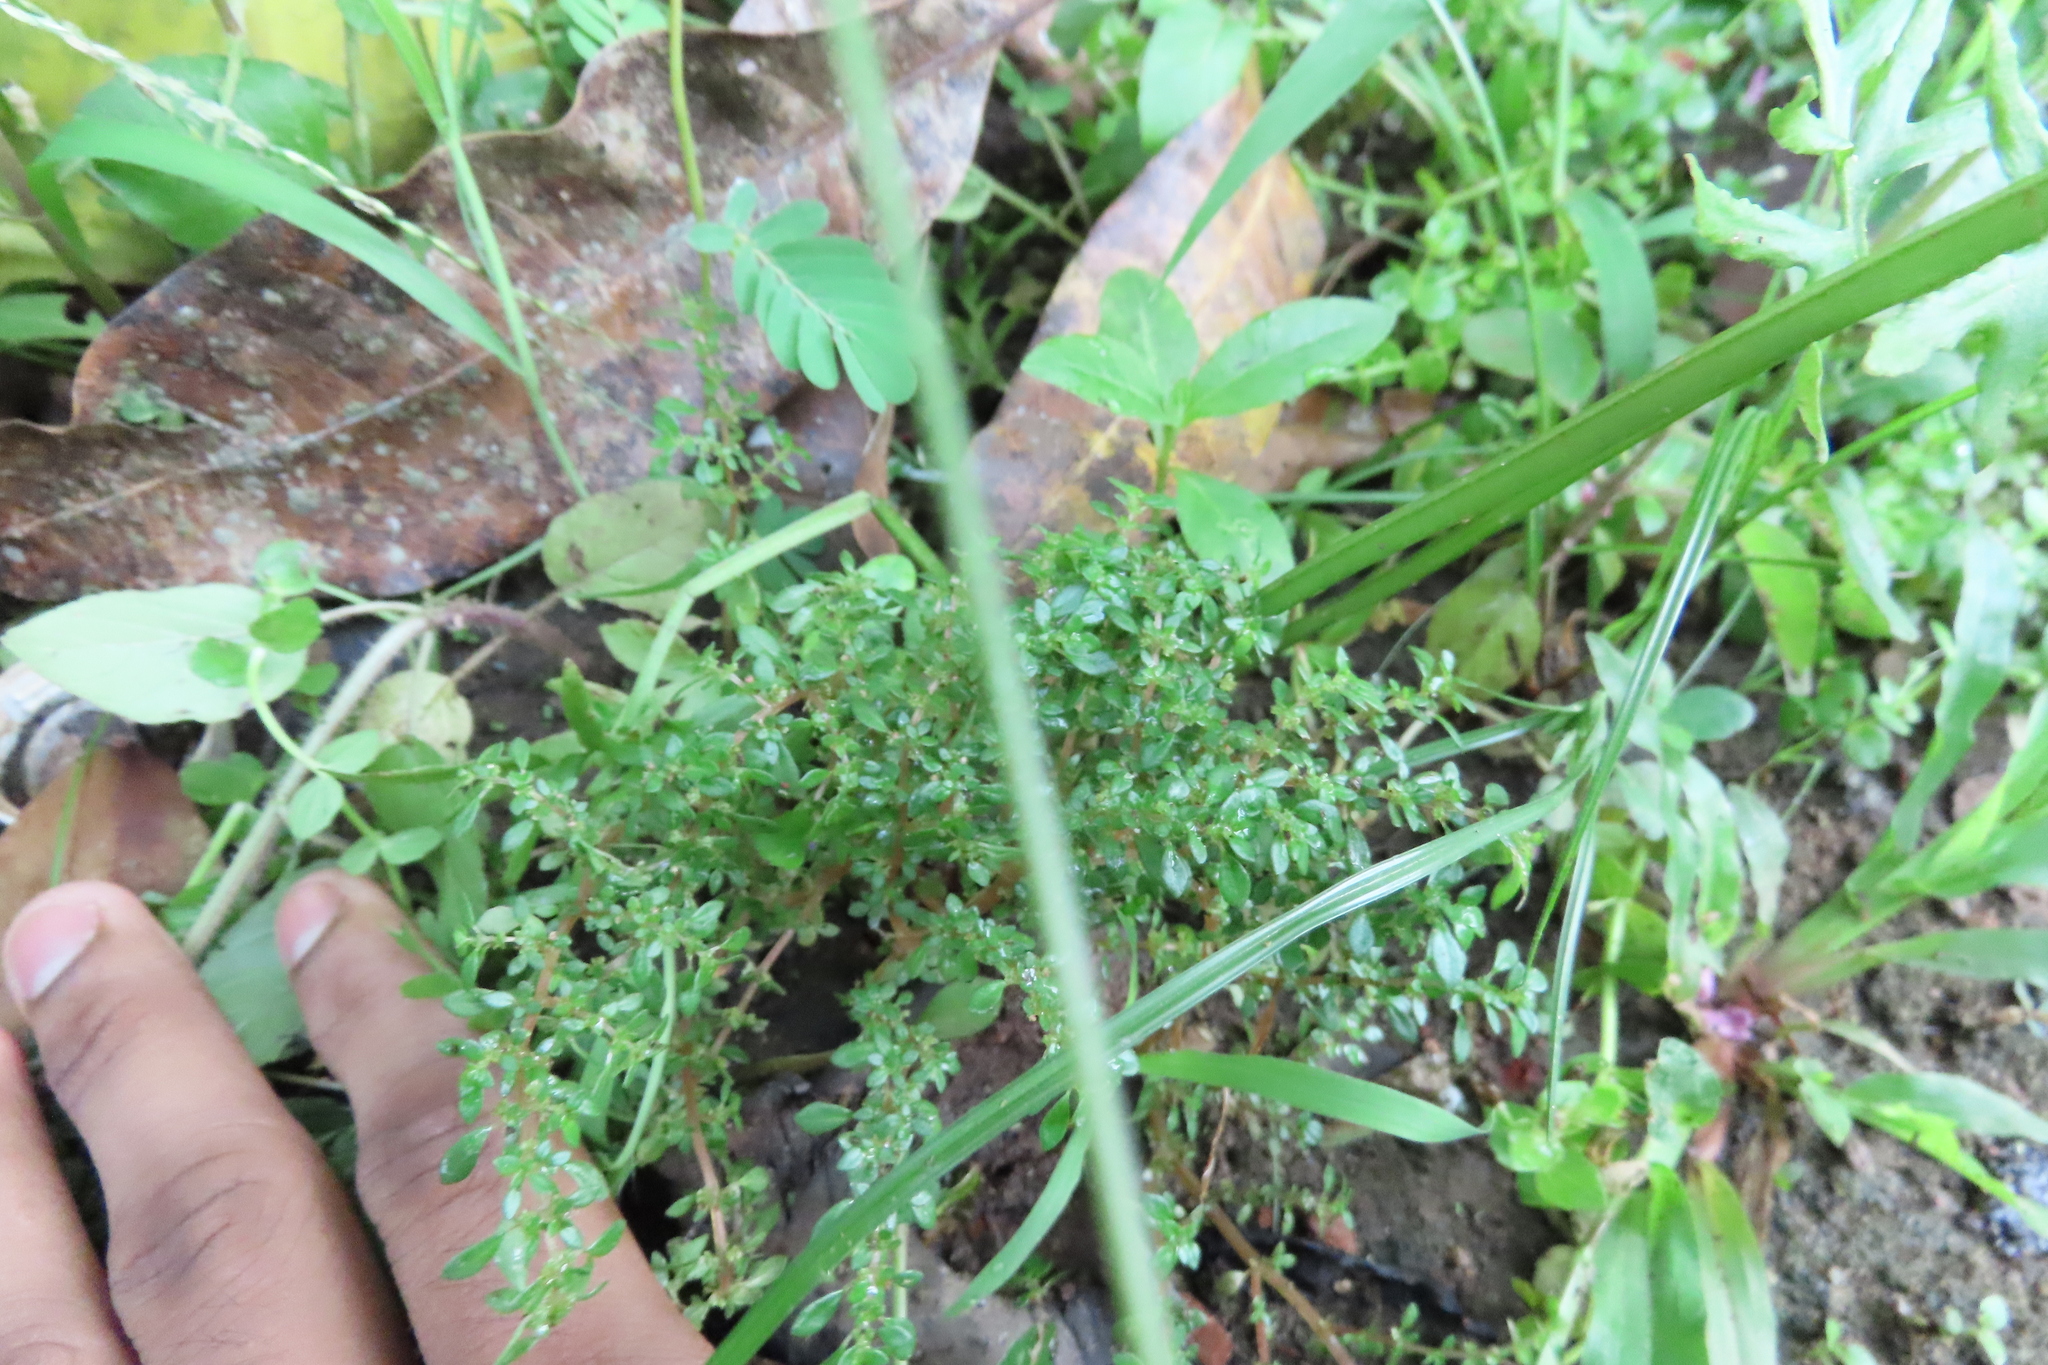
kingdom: Plantae
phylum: Tracheophyta
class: Magnoliopsida
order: Rosales
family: Urticaceae
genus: Pilea
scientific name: Pilea microphylla
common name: Artillery-plant
